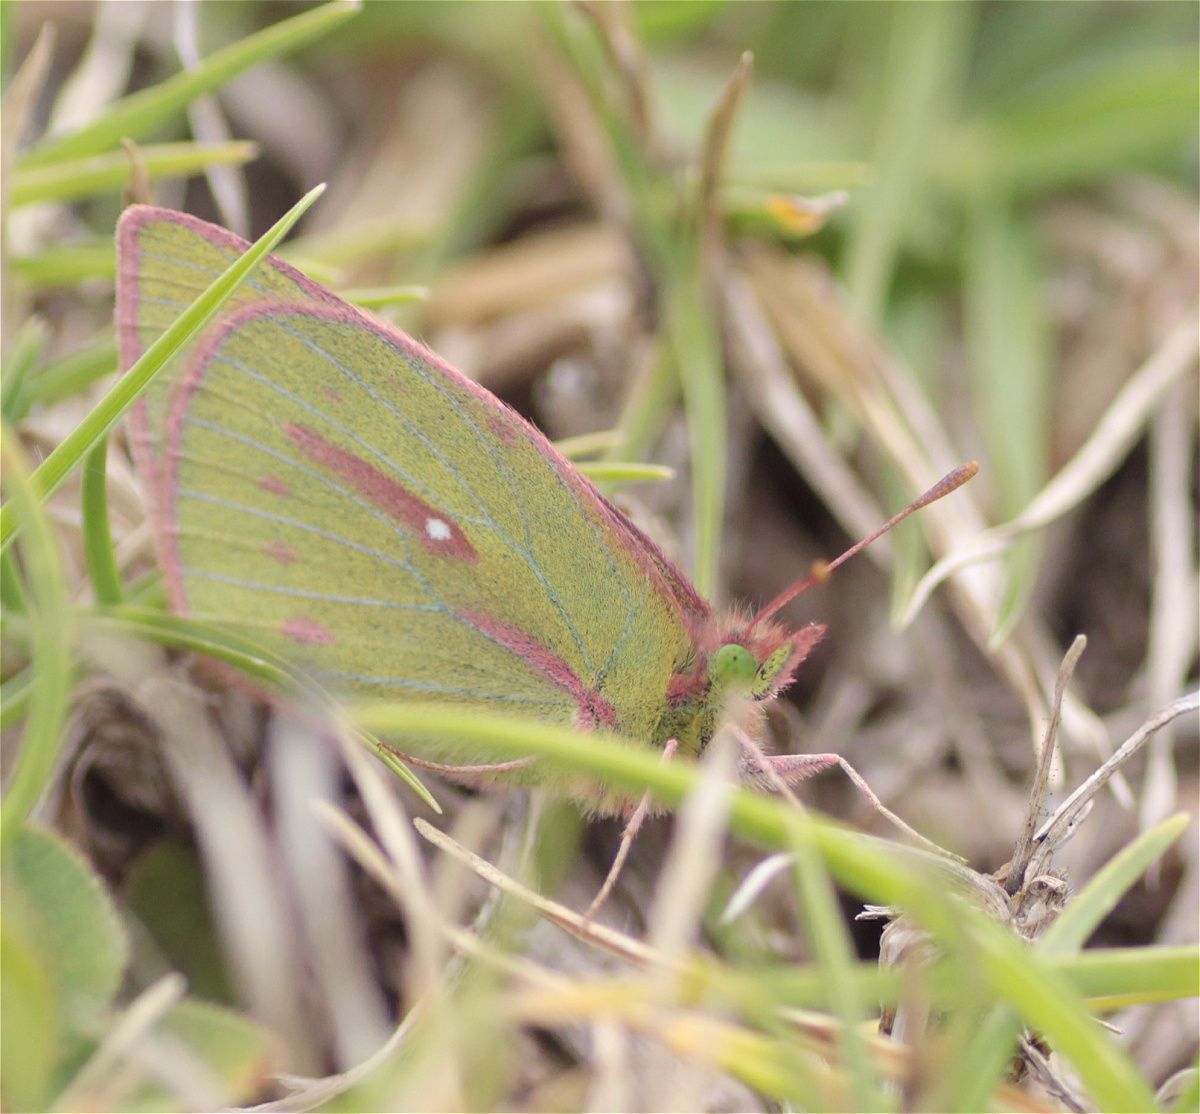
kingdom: Animalia
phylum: Arthropoda
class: Insecta
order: Lepidoptera
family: Pieridae
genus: Colias
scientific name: Colias dimera
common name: Dimera sulphur
